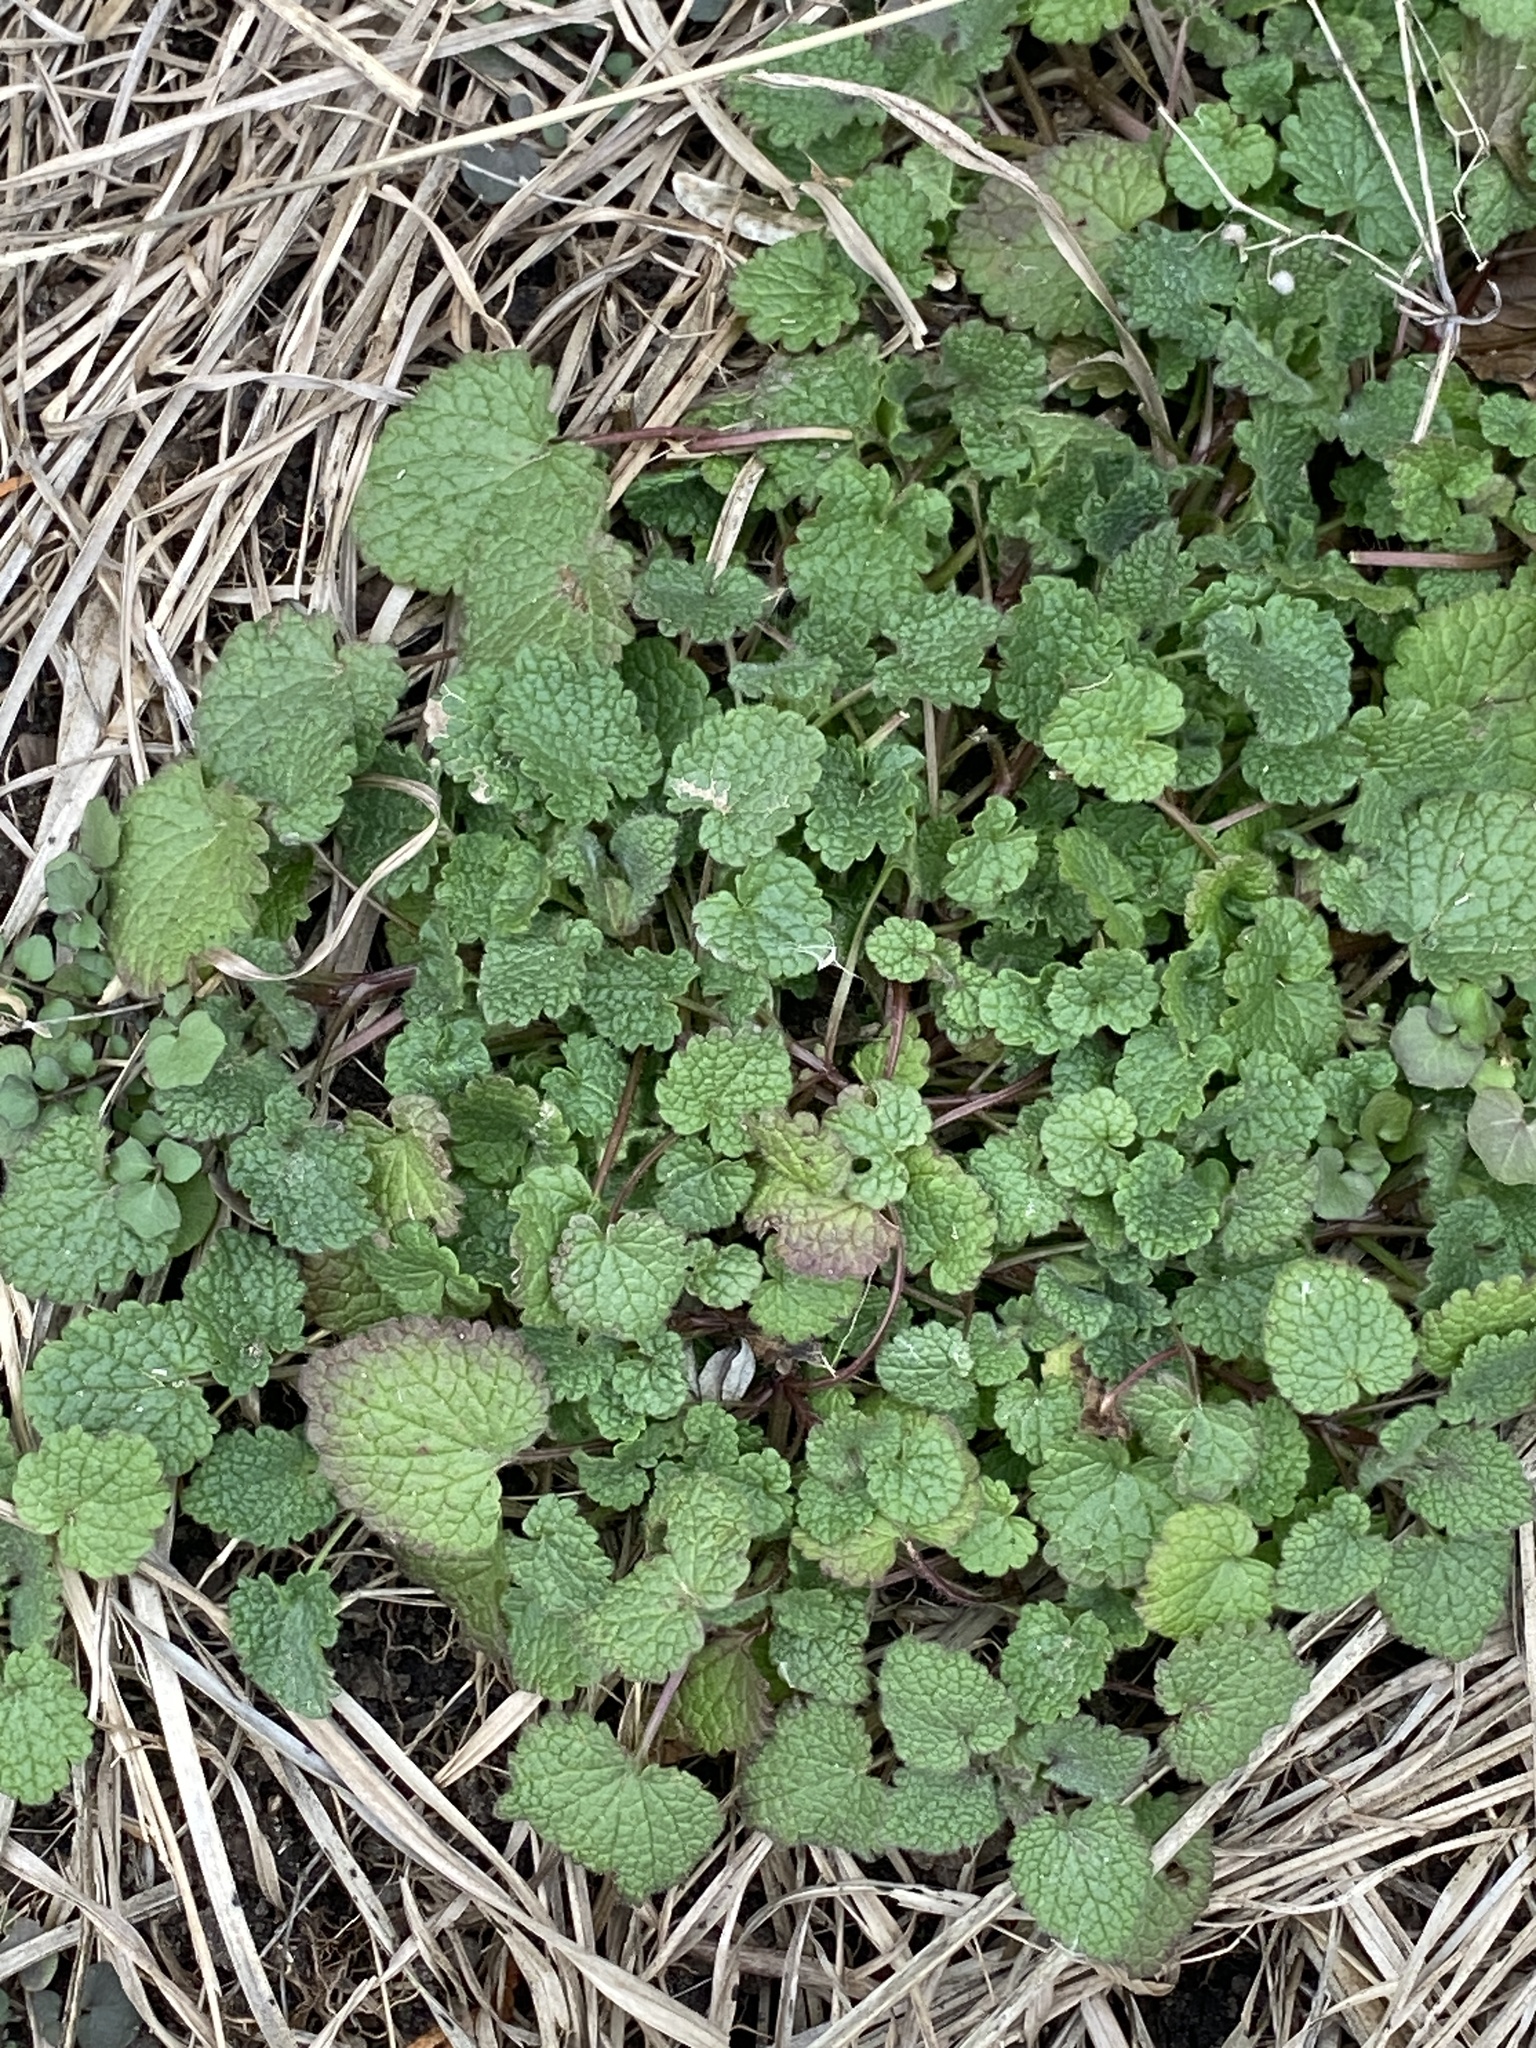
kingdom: Plantae
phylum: Tracheophyta
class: Magnoliopsida
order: Lamiales
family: Lamiaceae
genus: Lamium
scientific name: Lamium purpureum
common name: Red dead-nettle
